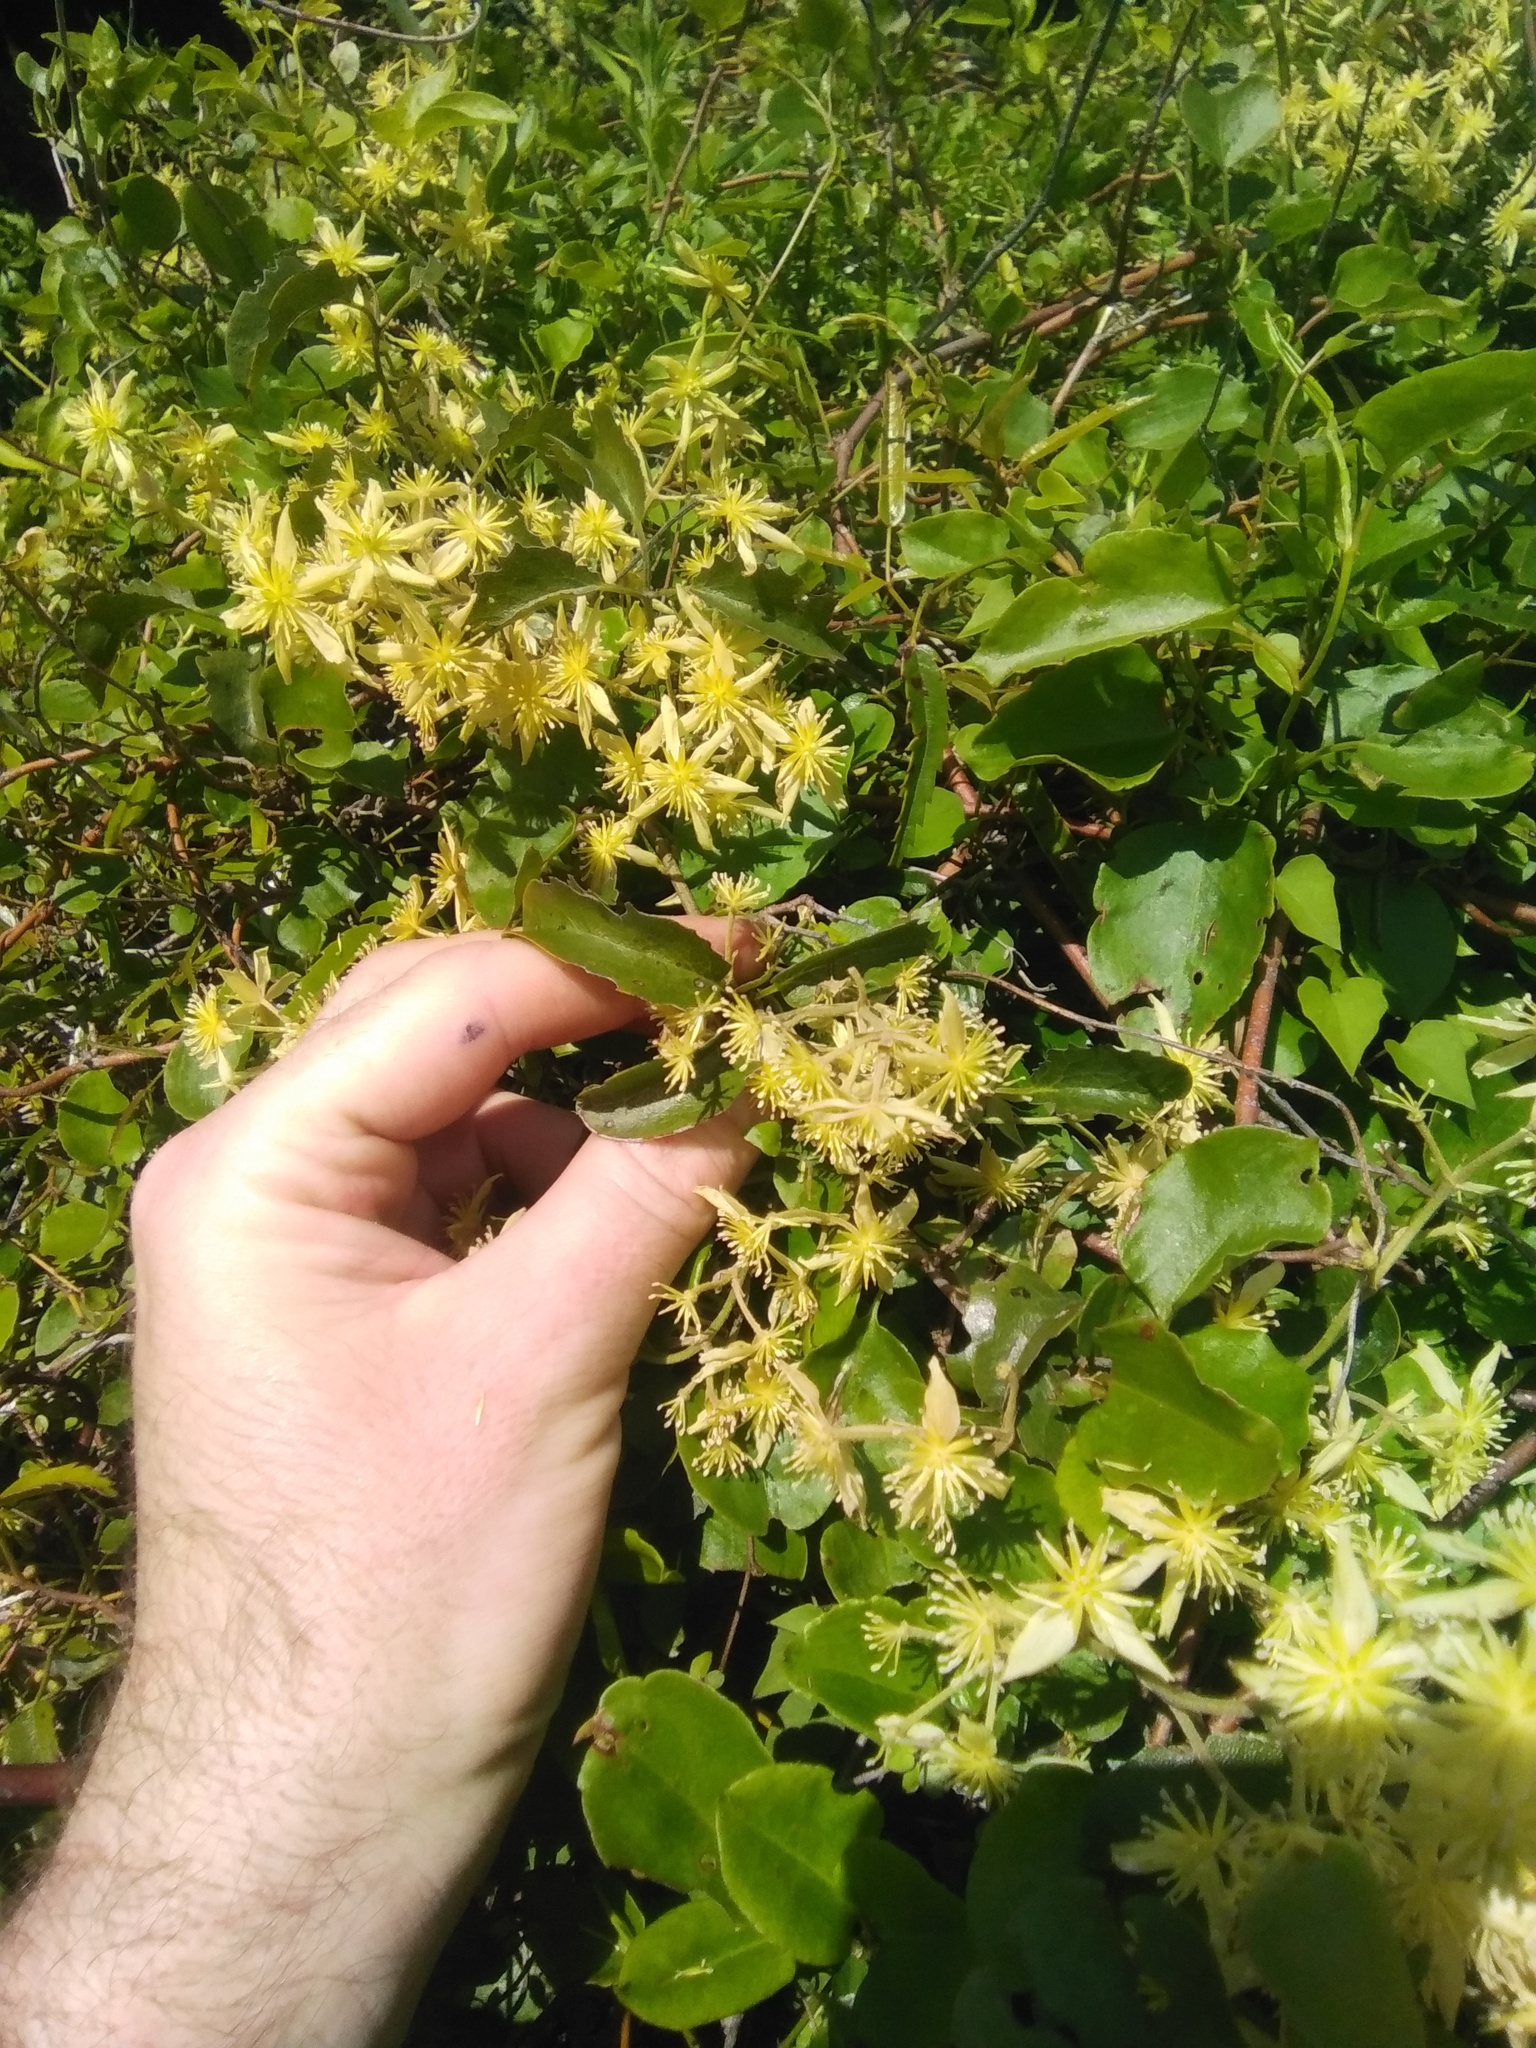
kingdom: Plantae
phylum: Tracheophyta
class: Magnoliopsida
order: Ranunculales
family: Ranunculaceae
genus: Clematis
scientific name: Clematis foetida
